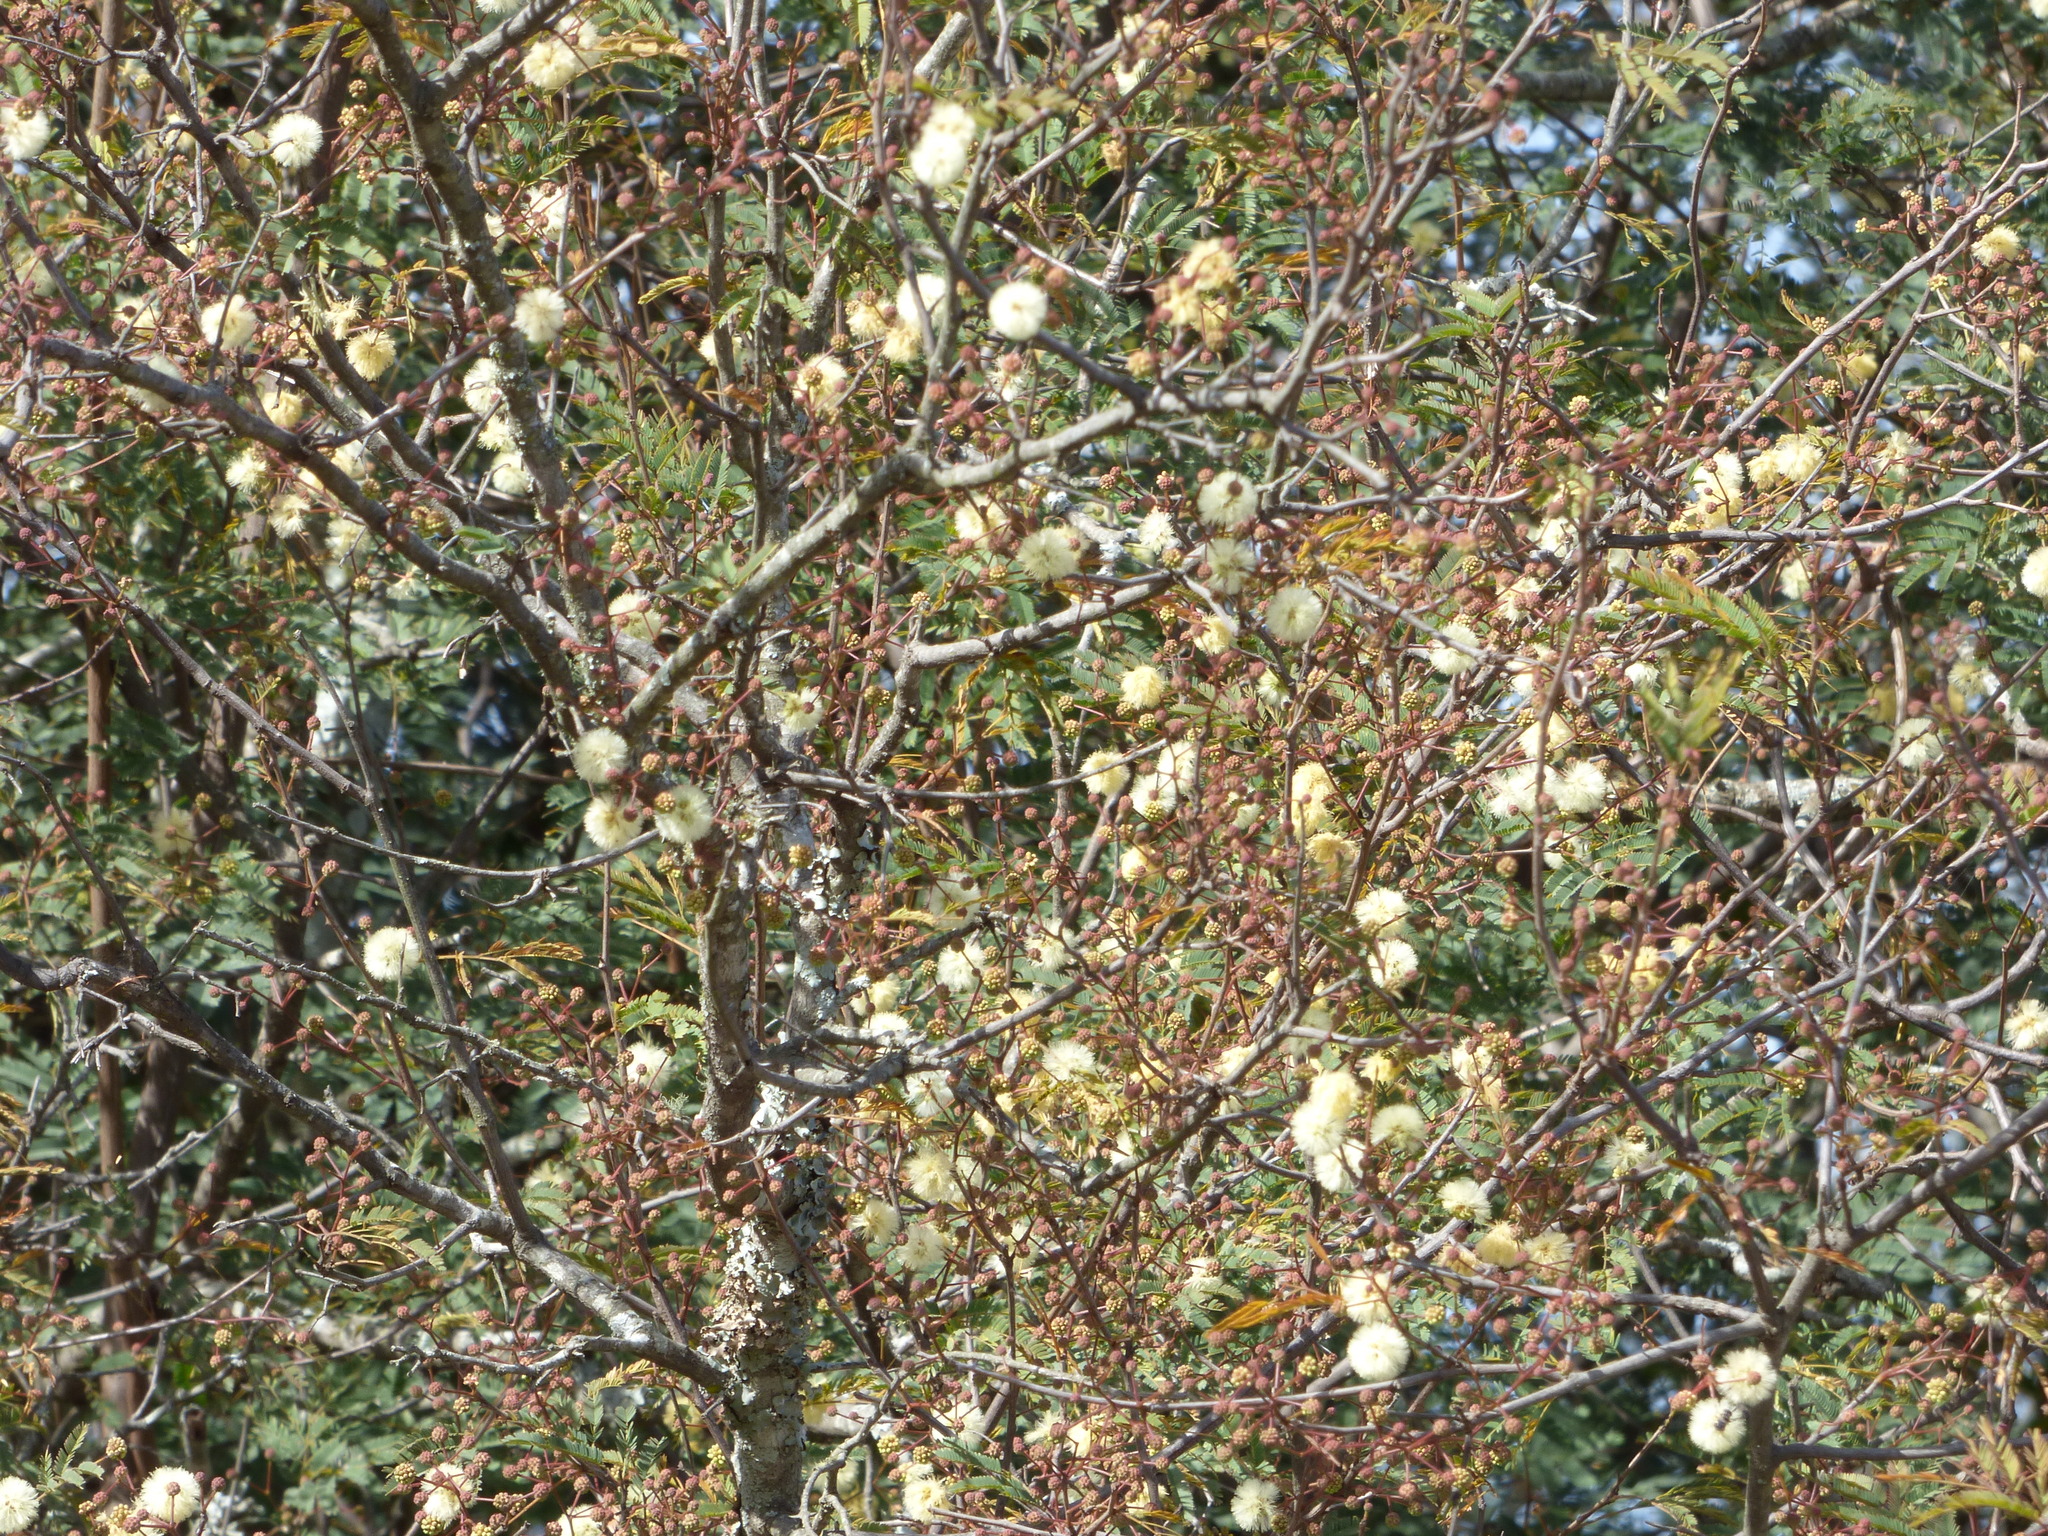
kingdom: Plantae
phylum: Tracheophyta
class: Magnoliopsida
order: Fabales
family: Fabaceae
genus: Senegalia
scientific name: Senegalia praecox
